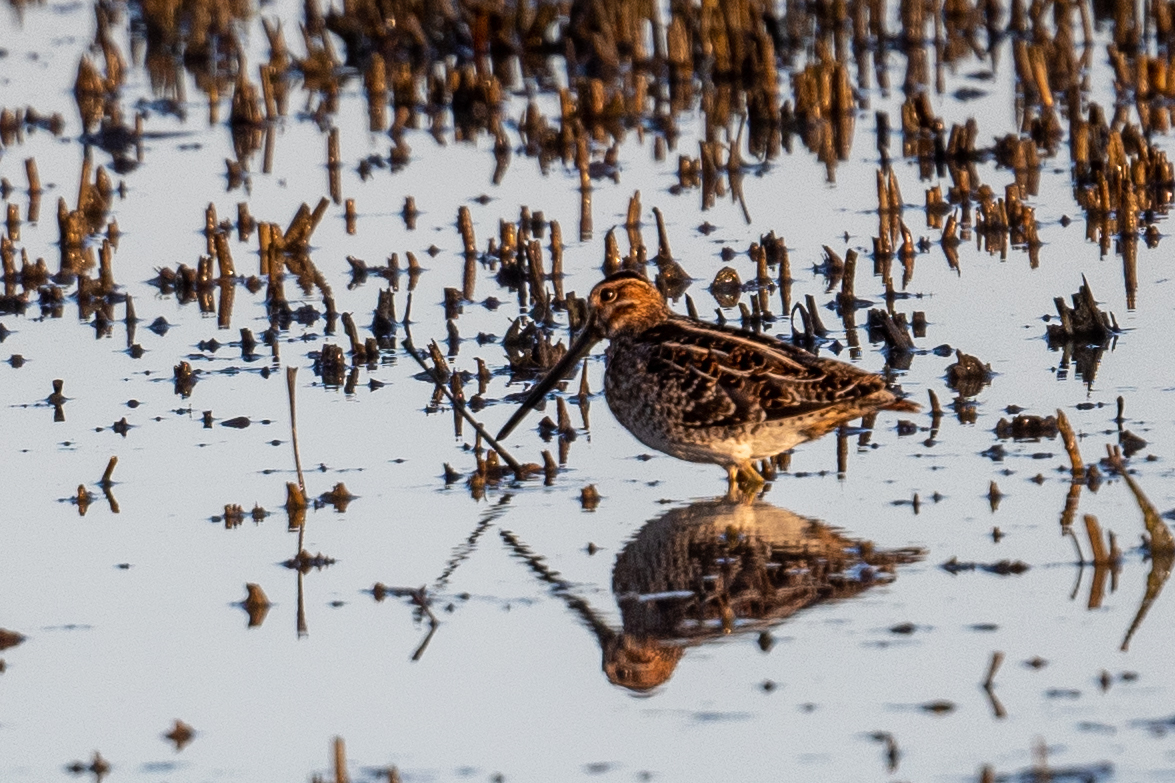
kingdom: Animalia
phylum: Chordata
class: Aves
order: Charadriiformes
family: Scolopacidae
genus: Gallinago
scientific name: Gallinago delicata
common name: Wilson's snipe
